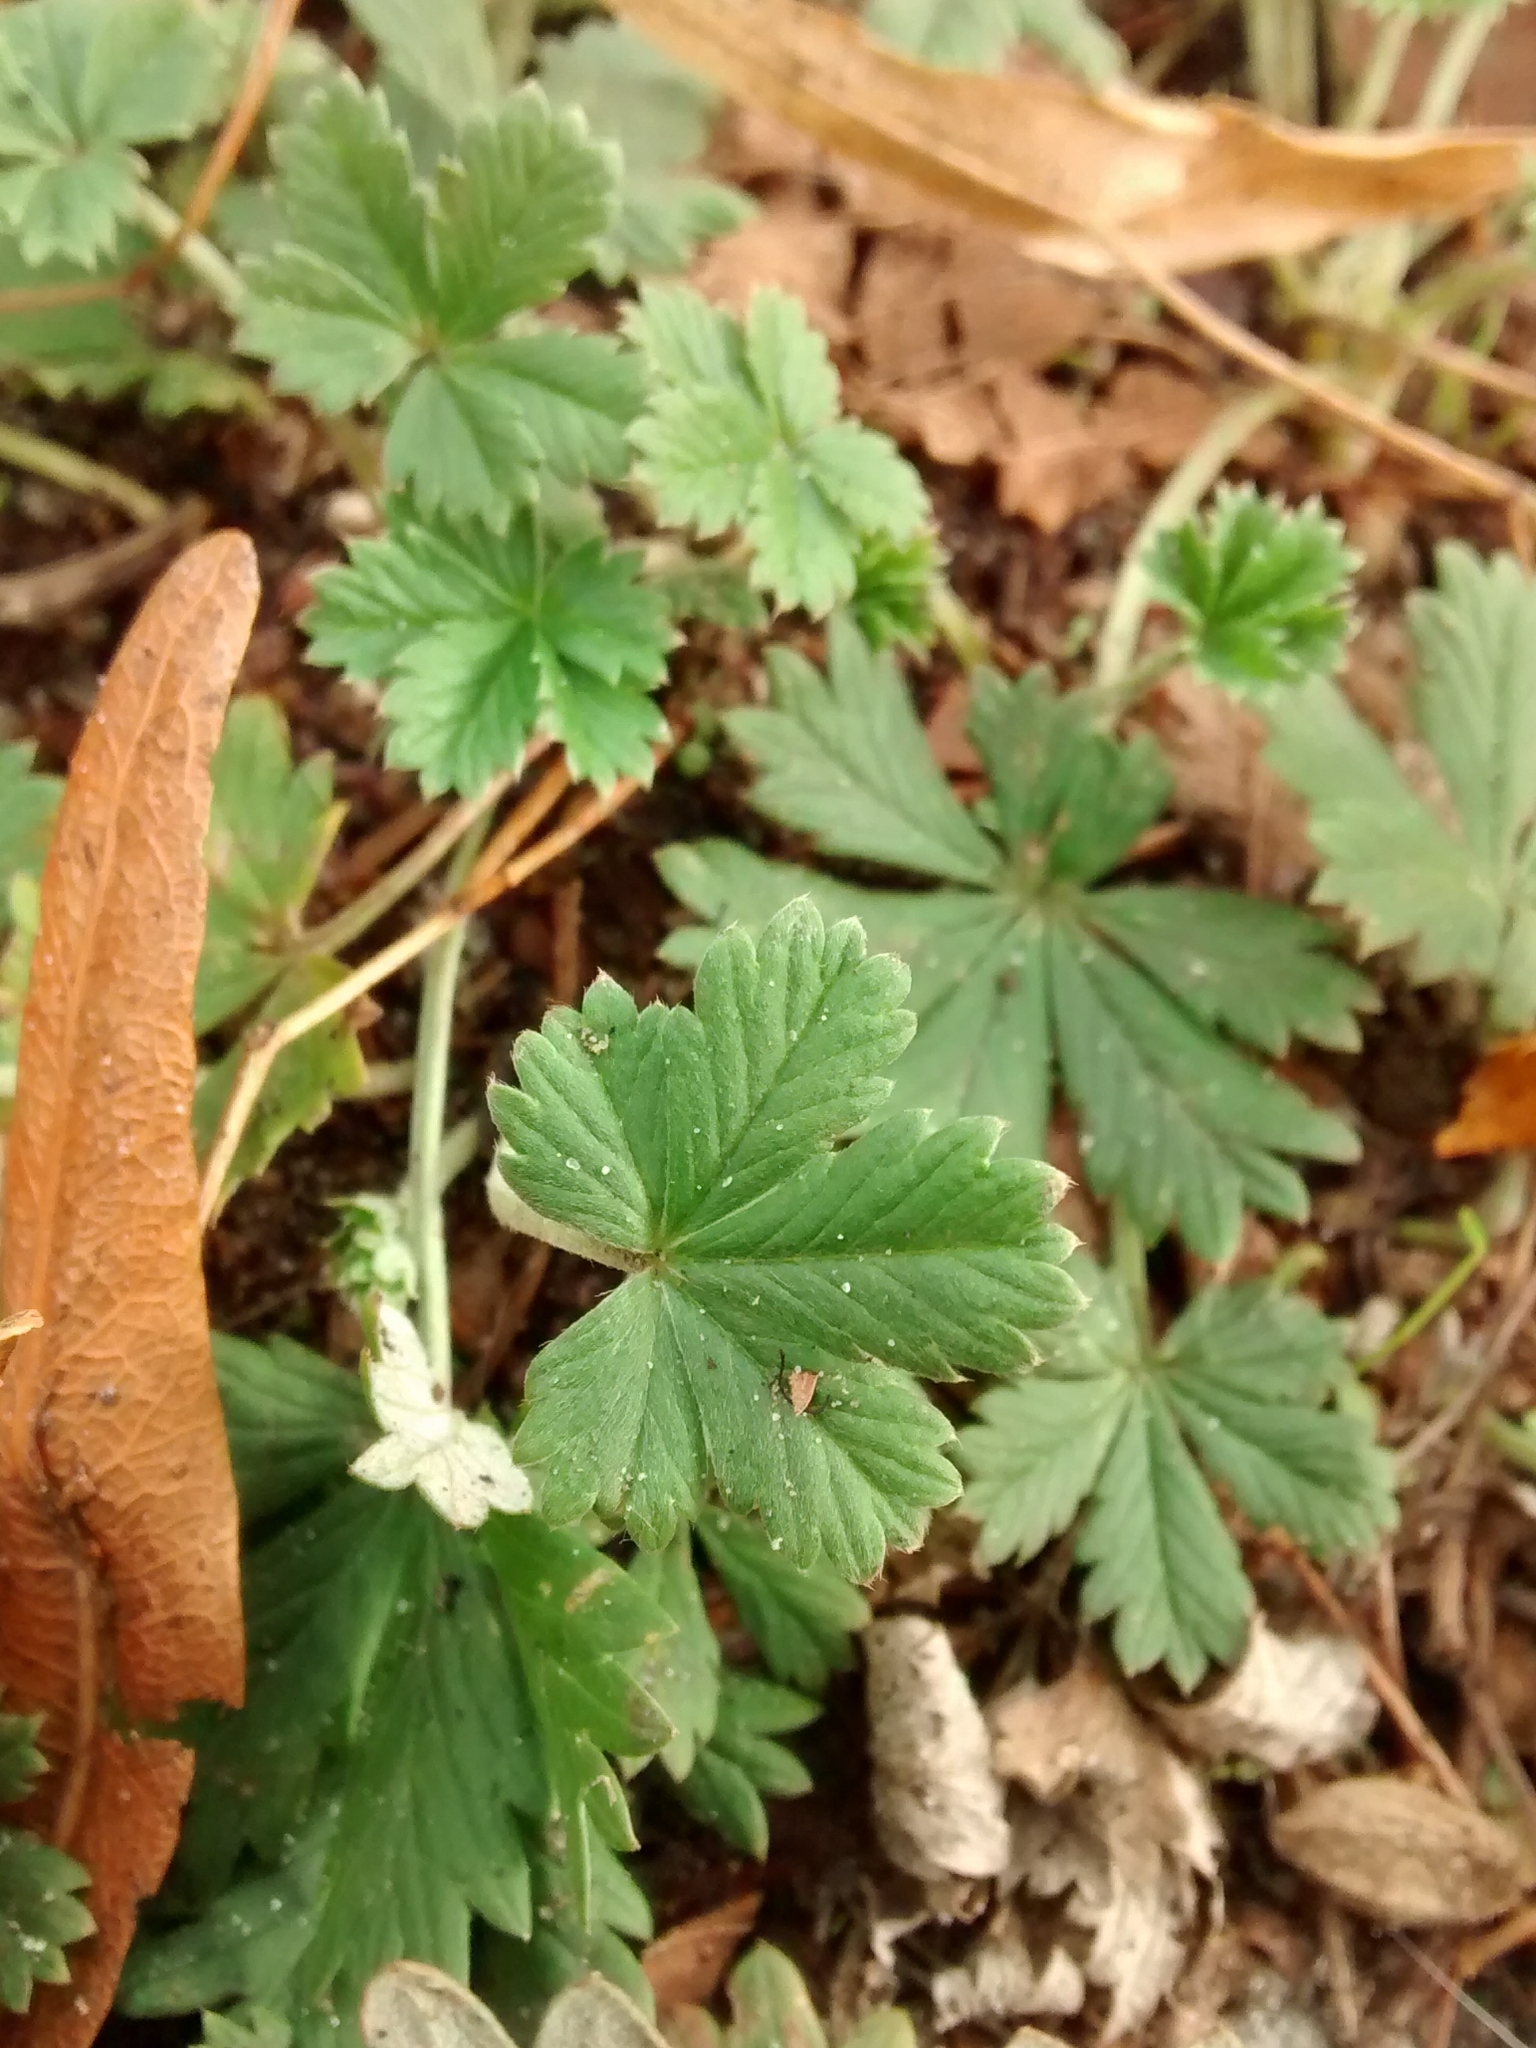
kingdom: Plantae
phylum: Tracheophyta
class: Magnoliopsida
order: Rosales
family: Rosaceae
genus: Potentilla
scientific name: Potentilla argentea
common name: Hoary cinquefoil
